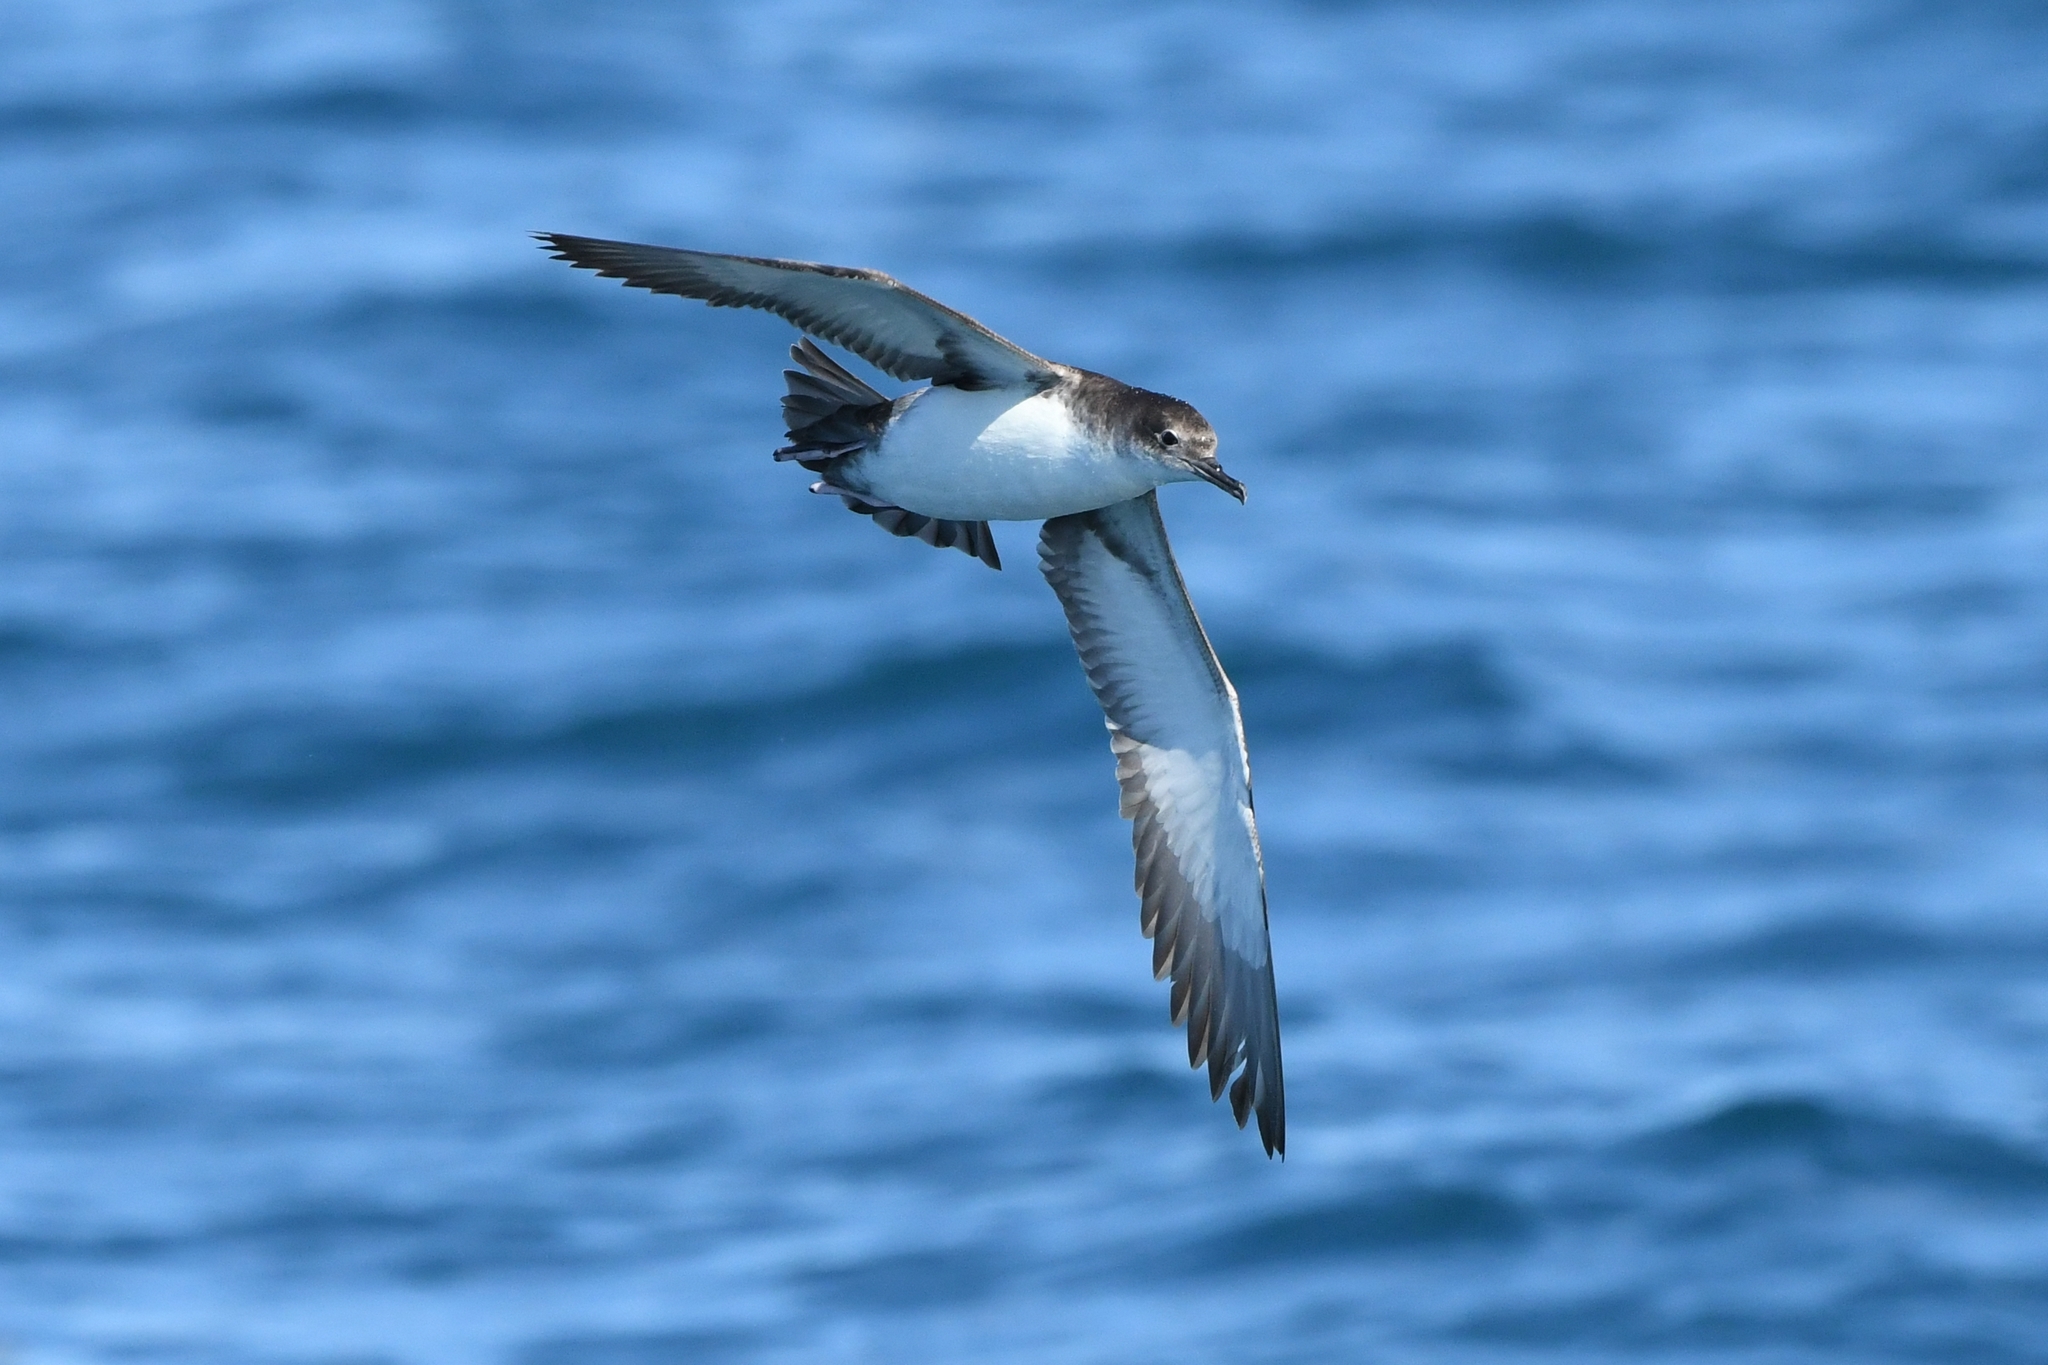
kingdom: Animalia
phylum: Chordata
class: Aves
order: Procellariiformes
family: Procellariidae
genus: Puffinus
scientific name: Puffinus yelkouan
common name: Yelkouan shearwater
